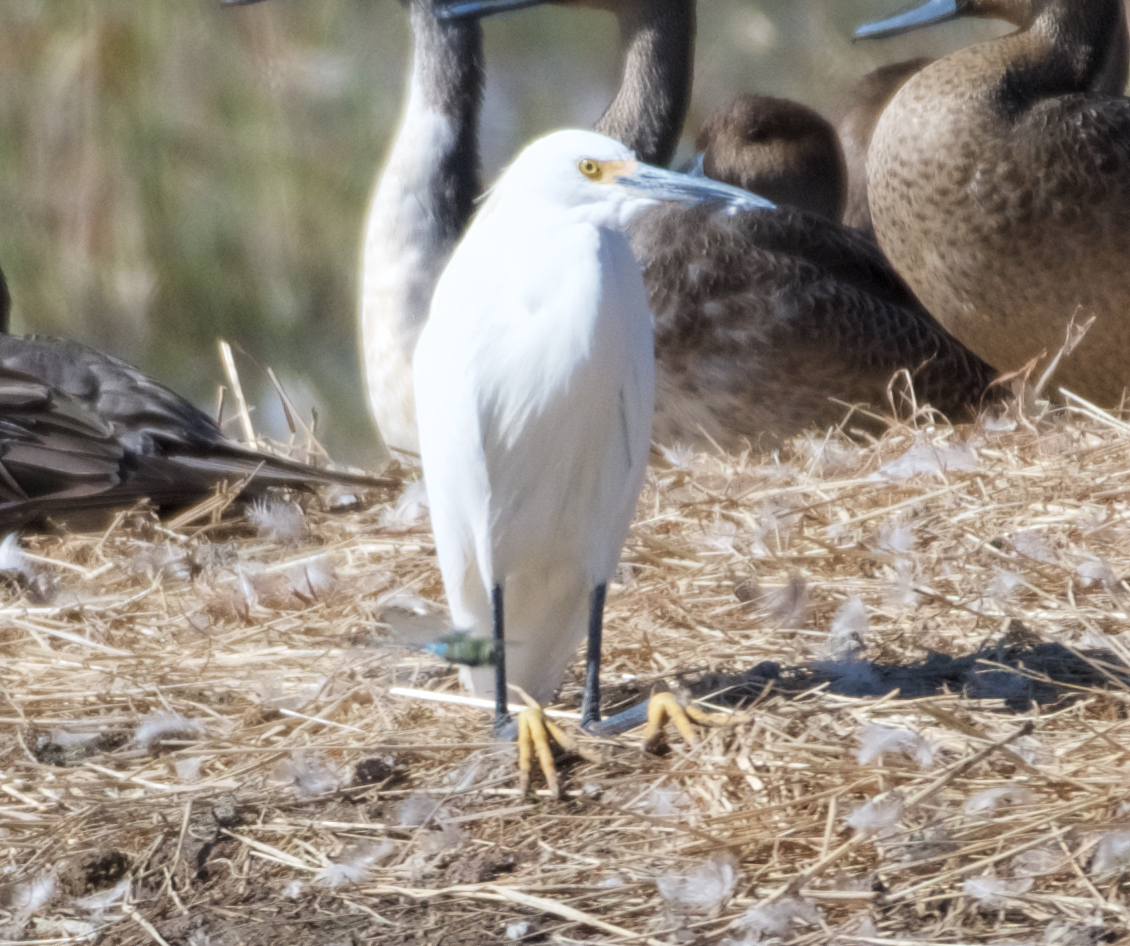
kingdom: Animalia
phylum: Chordata
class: Aves
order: Pelecaniformes
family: Ardeidae
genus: Egretta
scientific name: Egretta thula
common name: Snowy egret
